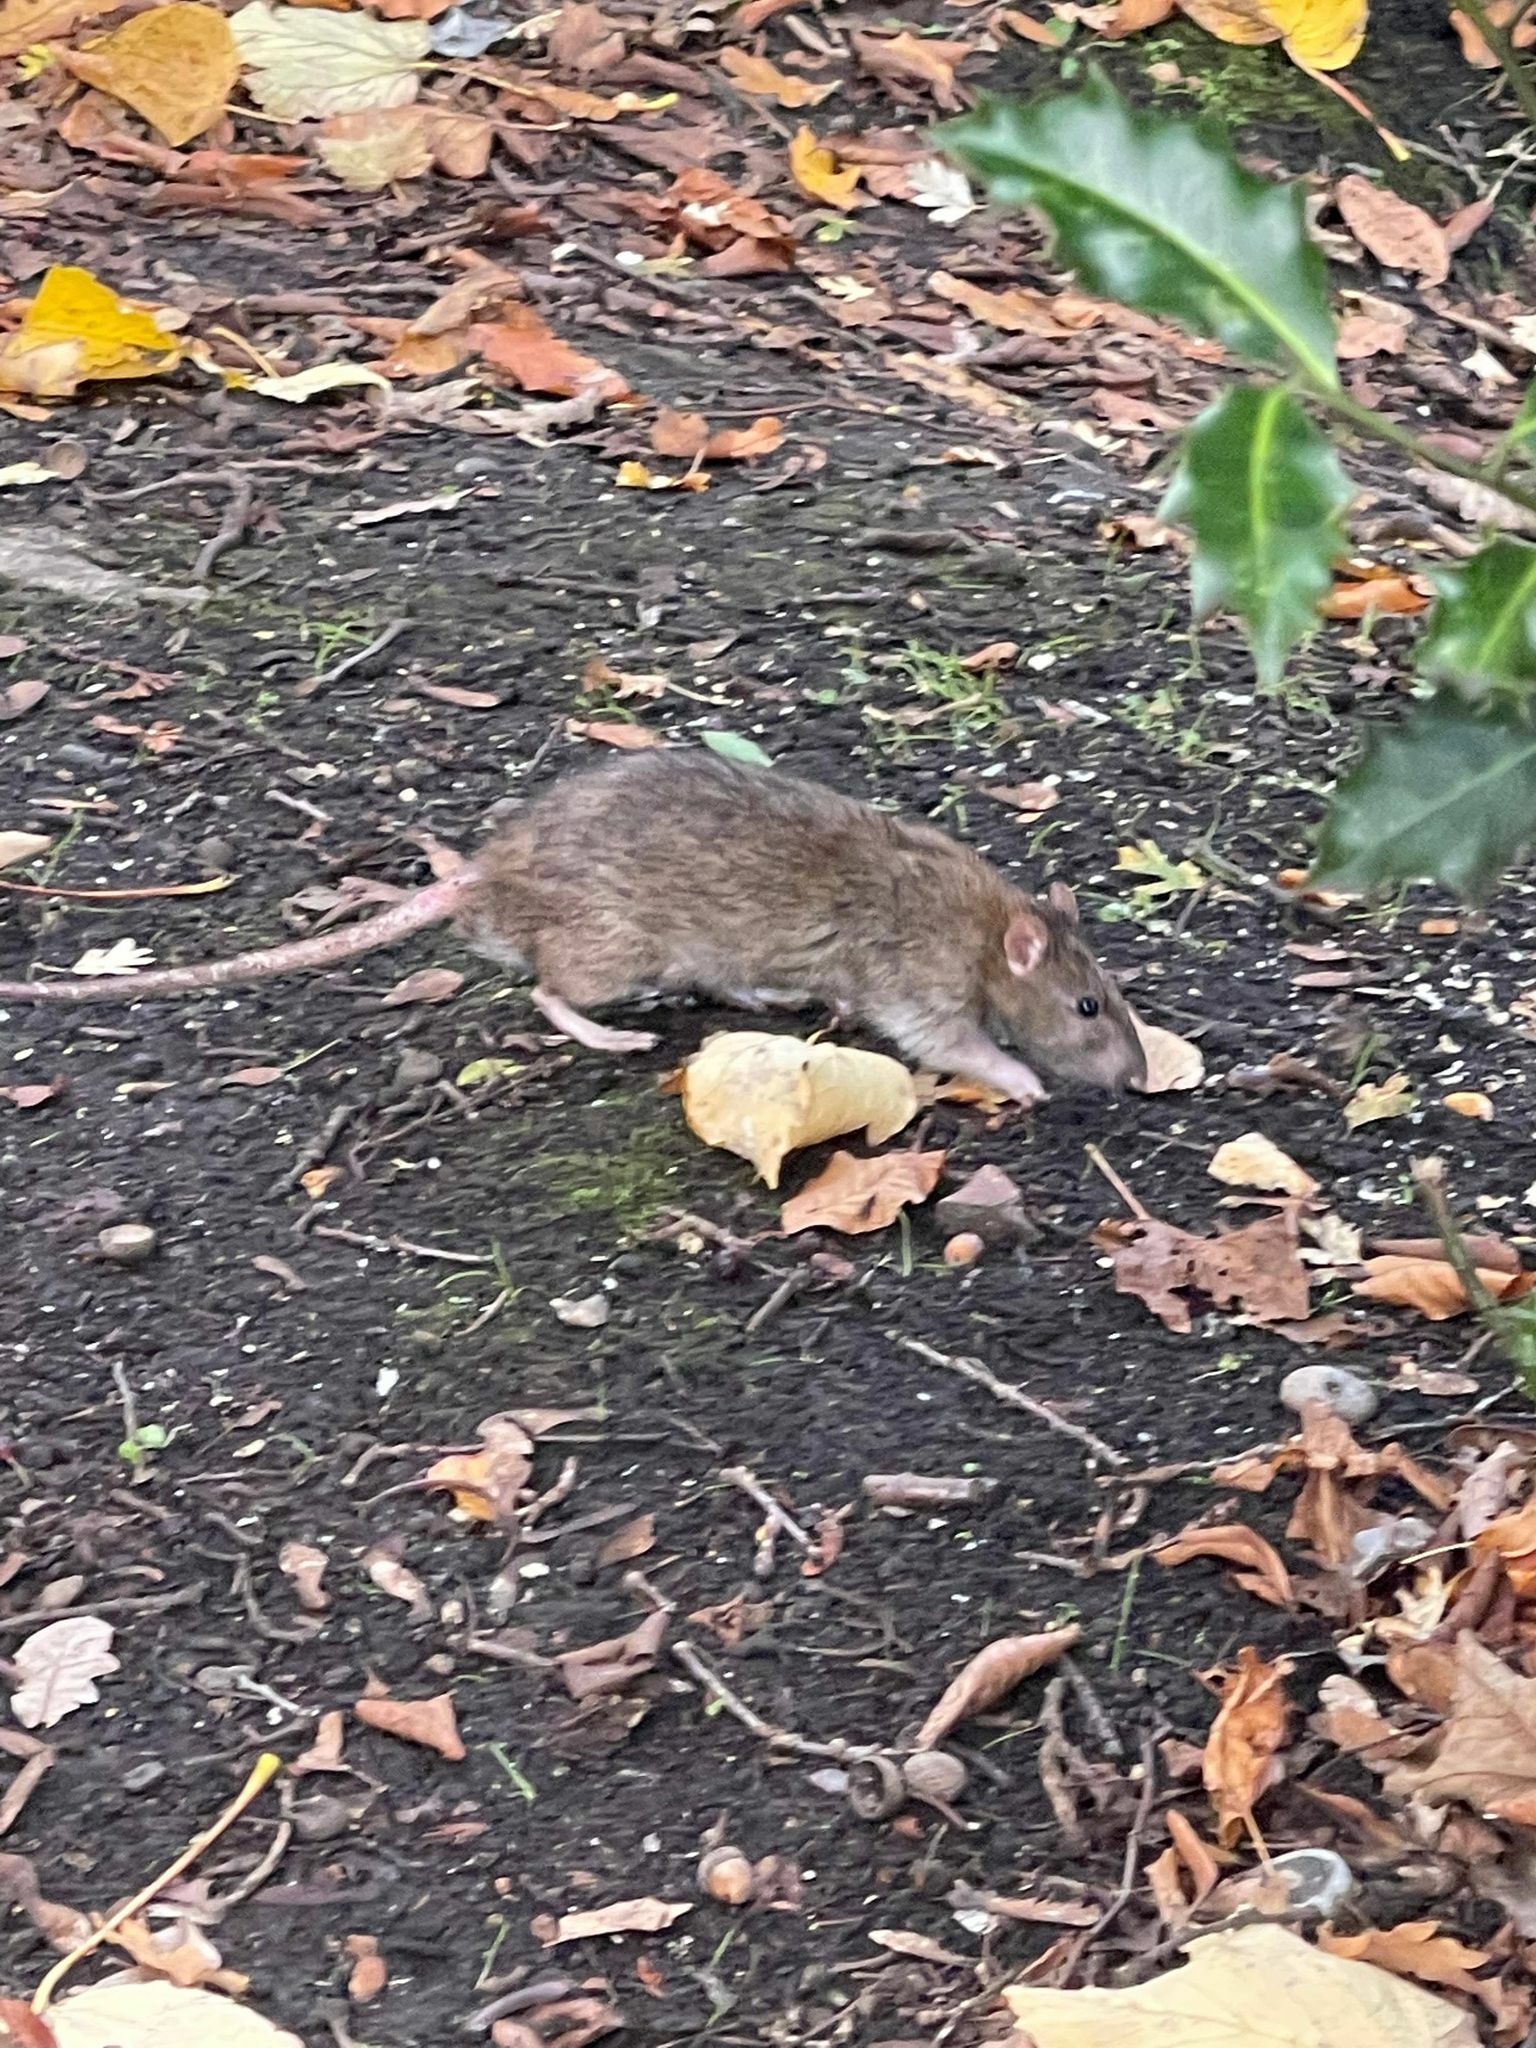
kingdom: Animalia
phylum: Chordata
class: Mammalia
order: Rodentia
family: Muridae
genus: Rattus
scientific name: Rattus norvegicus
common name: Brown rat
